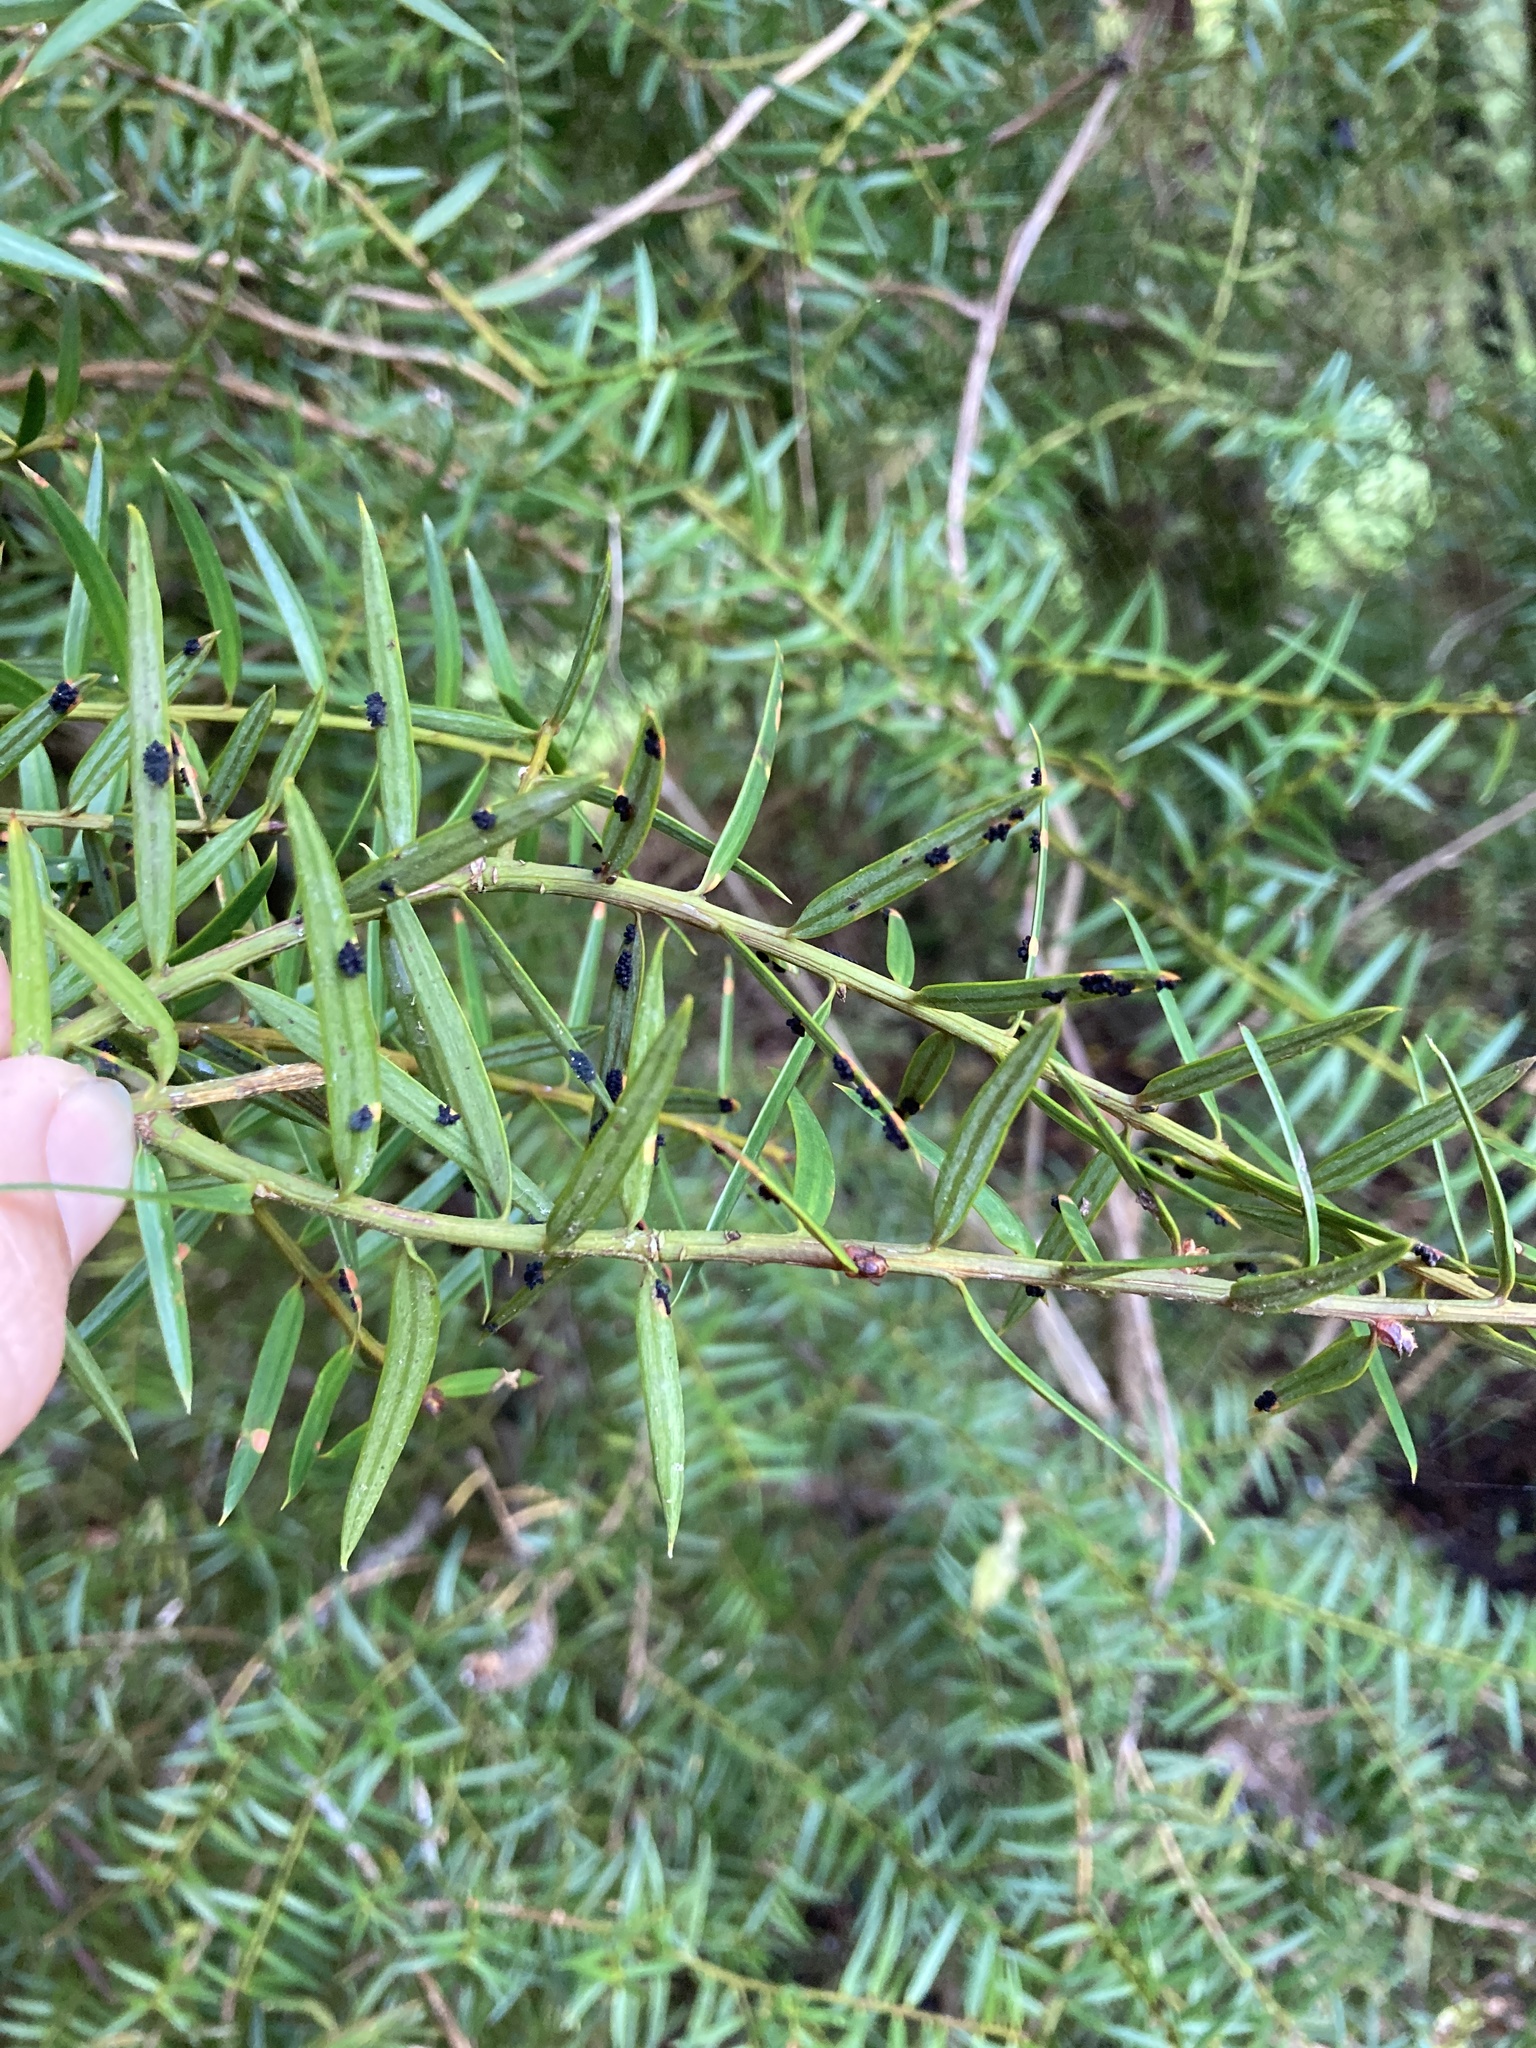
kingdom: Plantae
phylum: Tracheophyta
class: Pinopsida
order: Pinales
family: Podocarpaceae
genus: Podocarpus
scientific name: Podocarpus totara
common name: Totara
